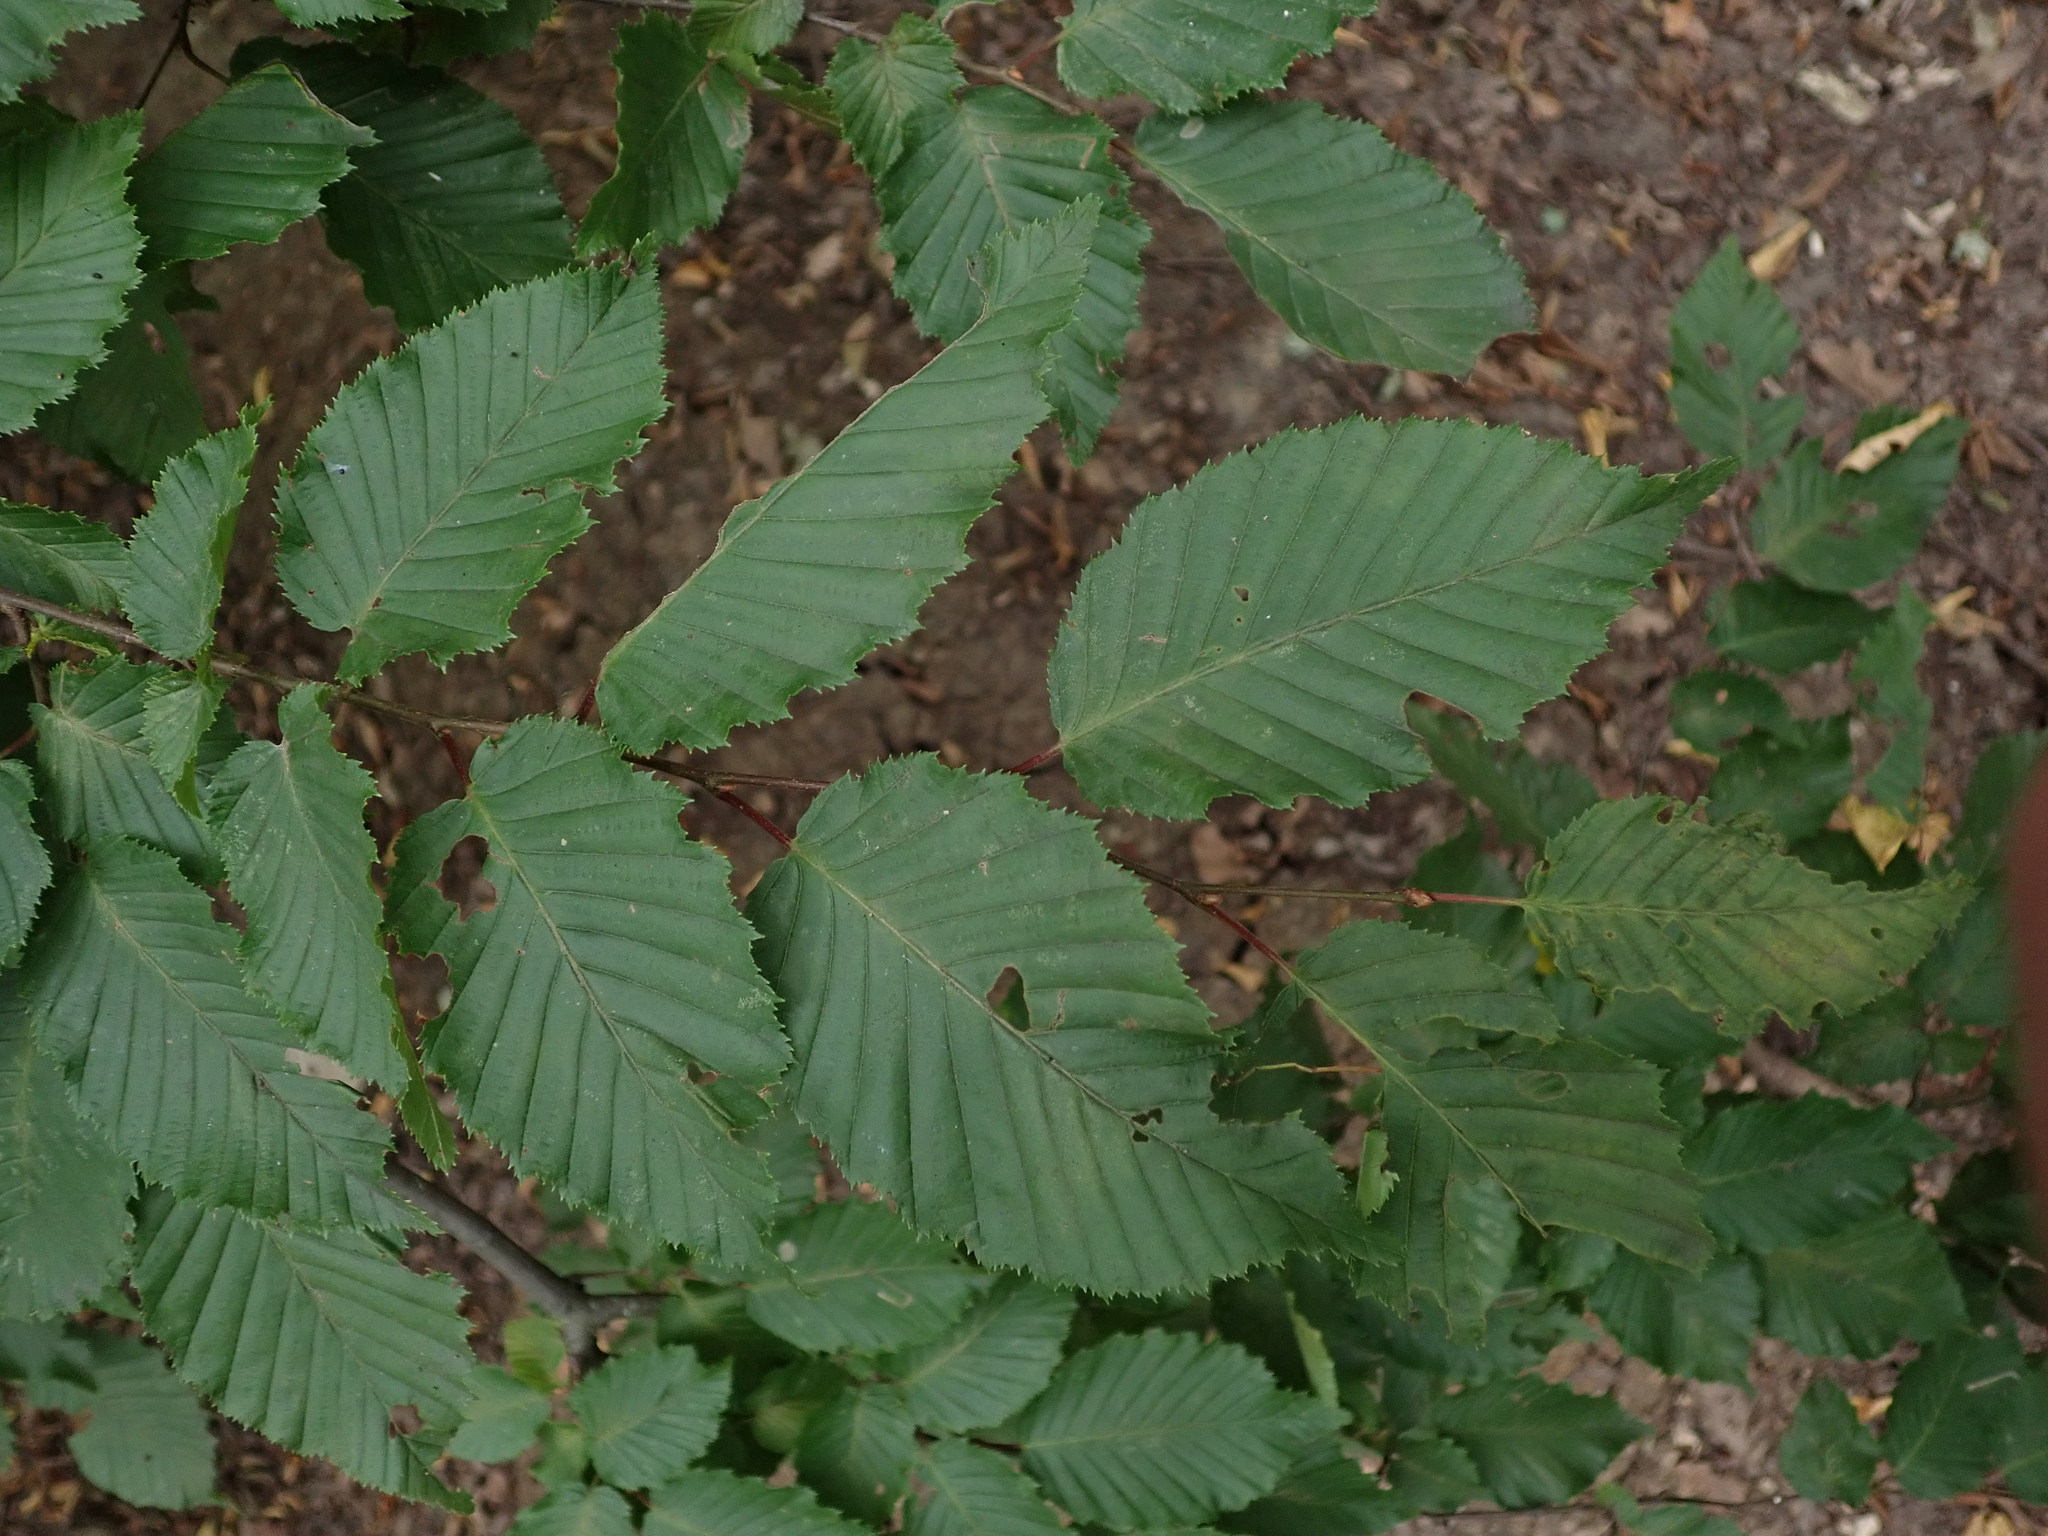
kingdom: Plantae
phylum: Tracheophyta
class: Magnoliopsida
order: Fagales
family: Betulaceae
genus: Carpinus
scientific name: Carpinus betulus
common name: Hornbeam
